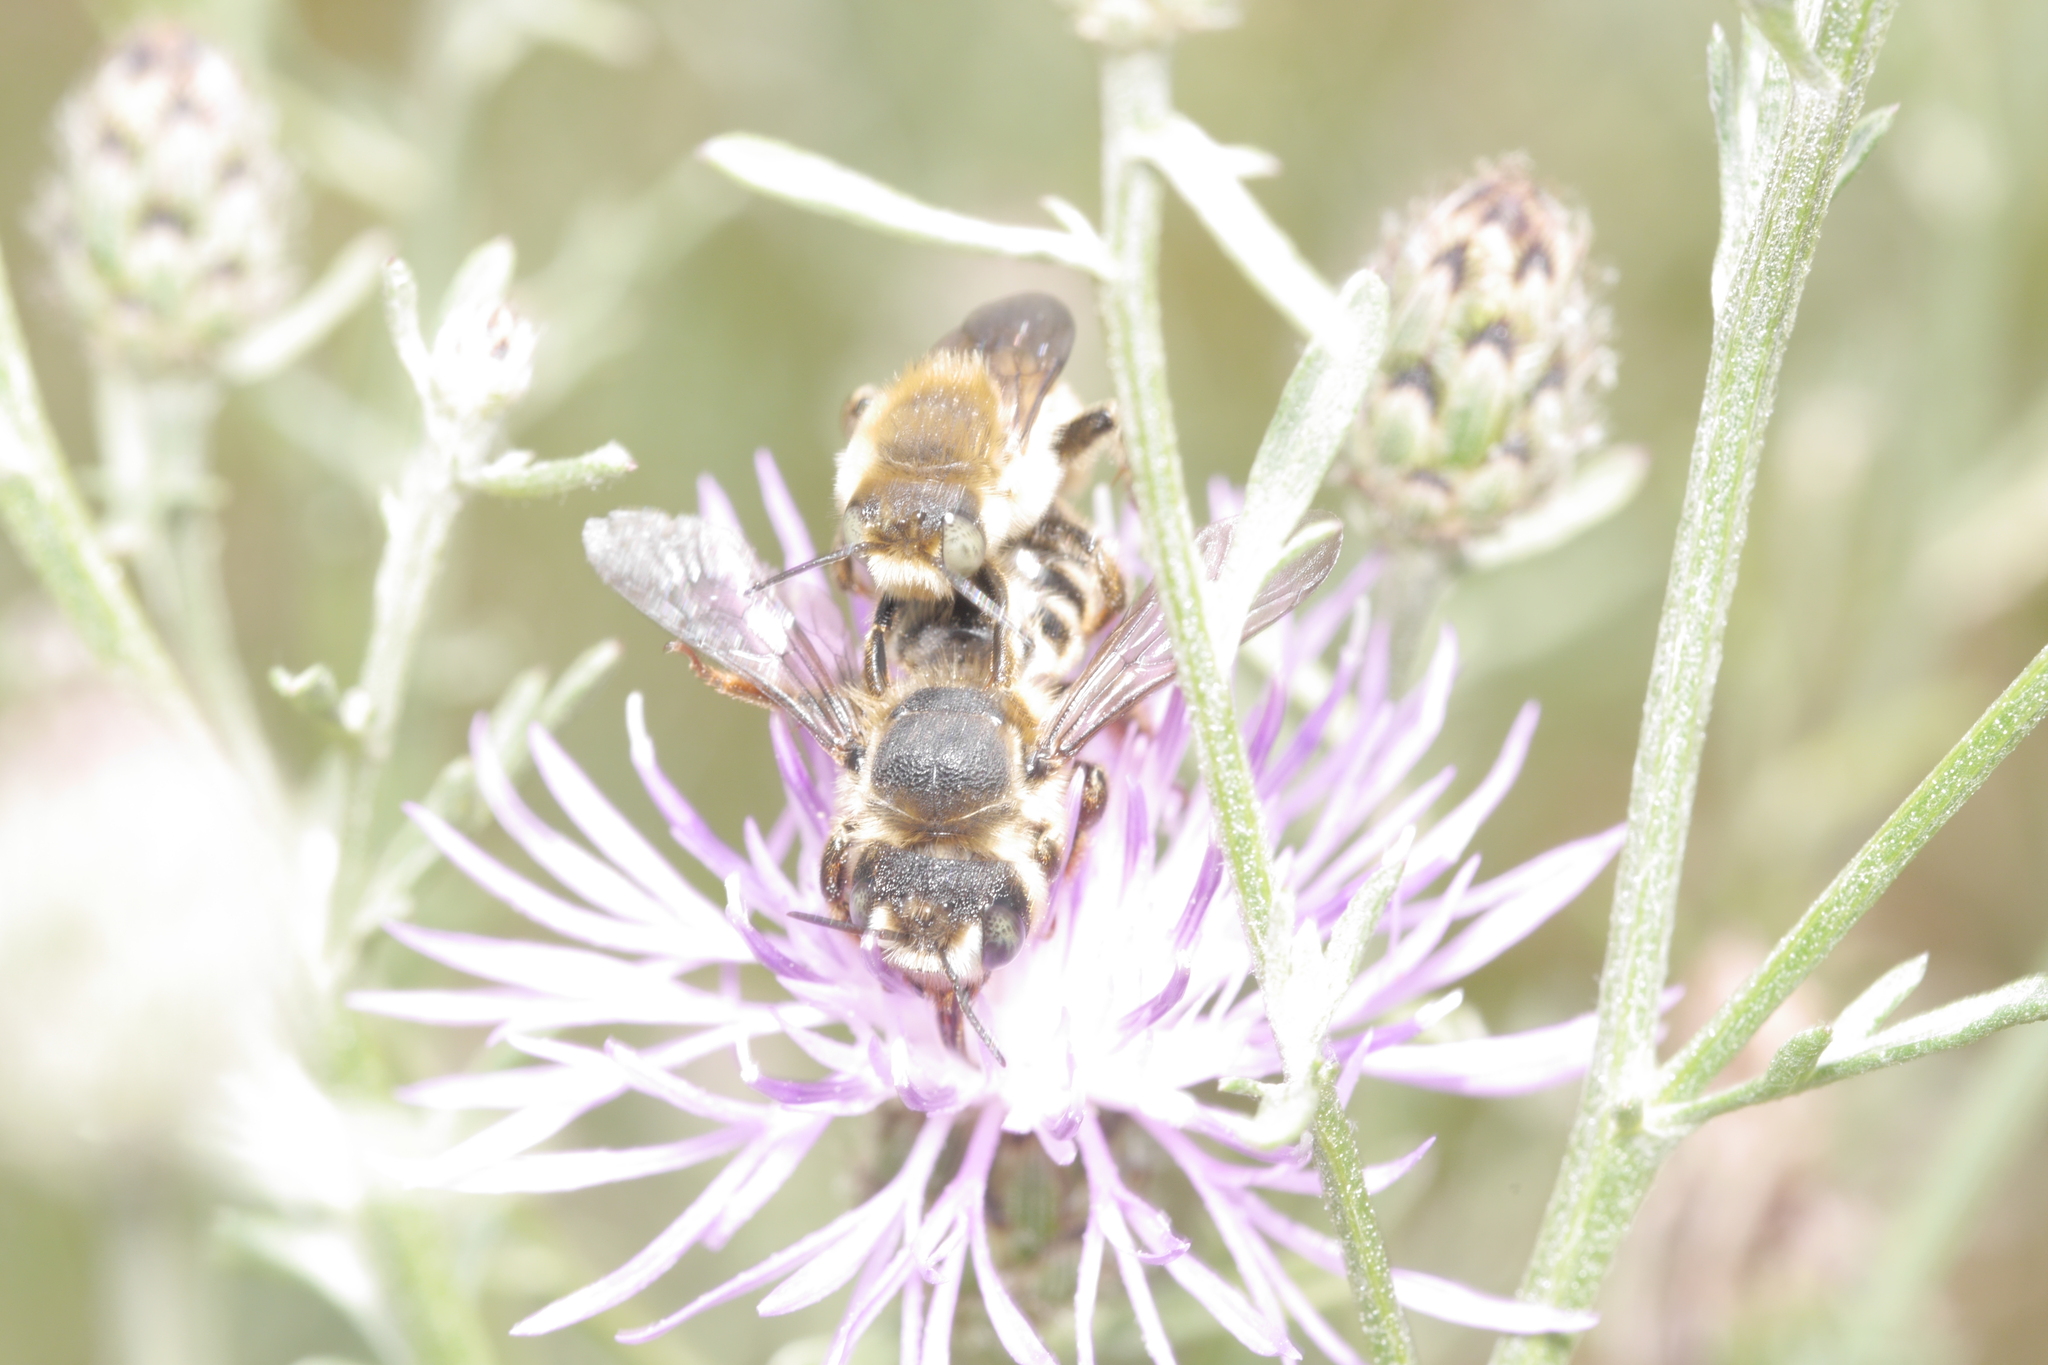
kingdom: Animalia
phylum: Arthropoda
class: Insecta
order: Hymenoptera
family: Megachilidae
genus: Lithurgus
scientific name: Lithurgus chrysurus
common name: Wood-boring bee
